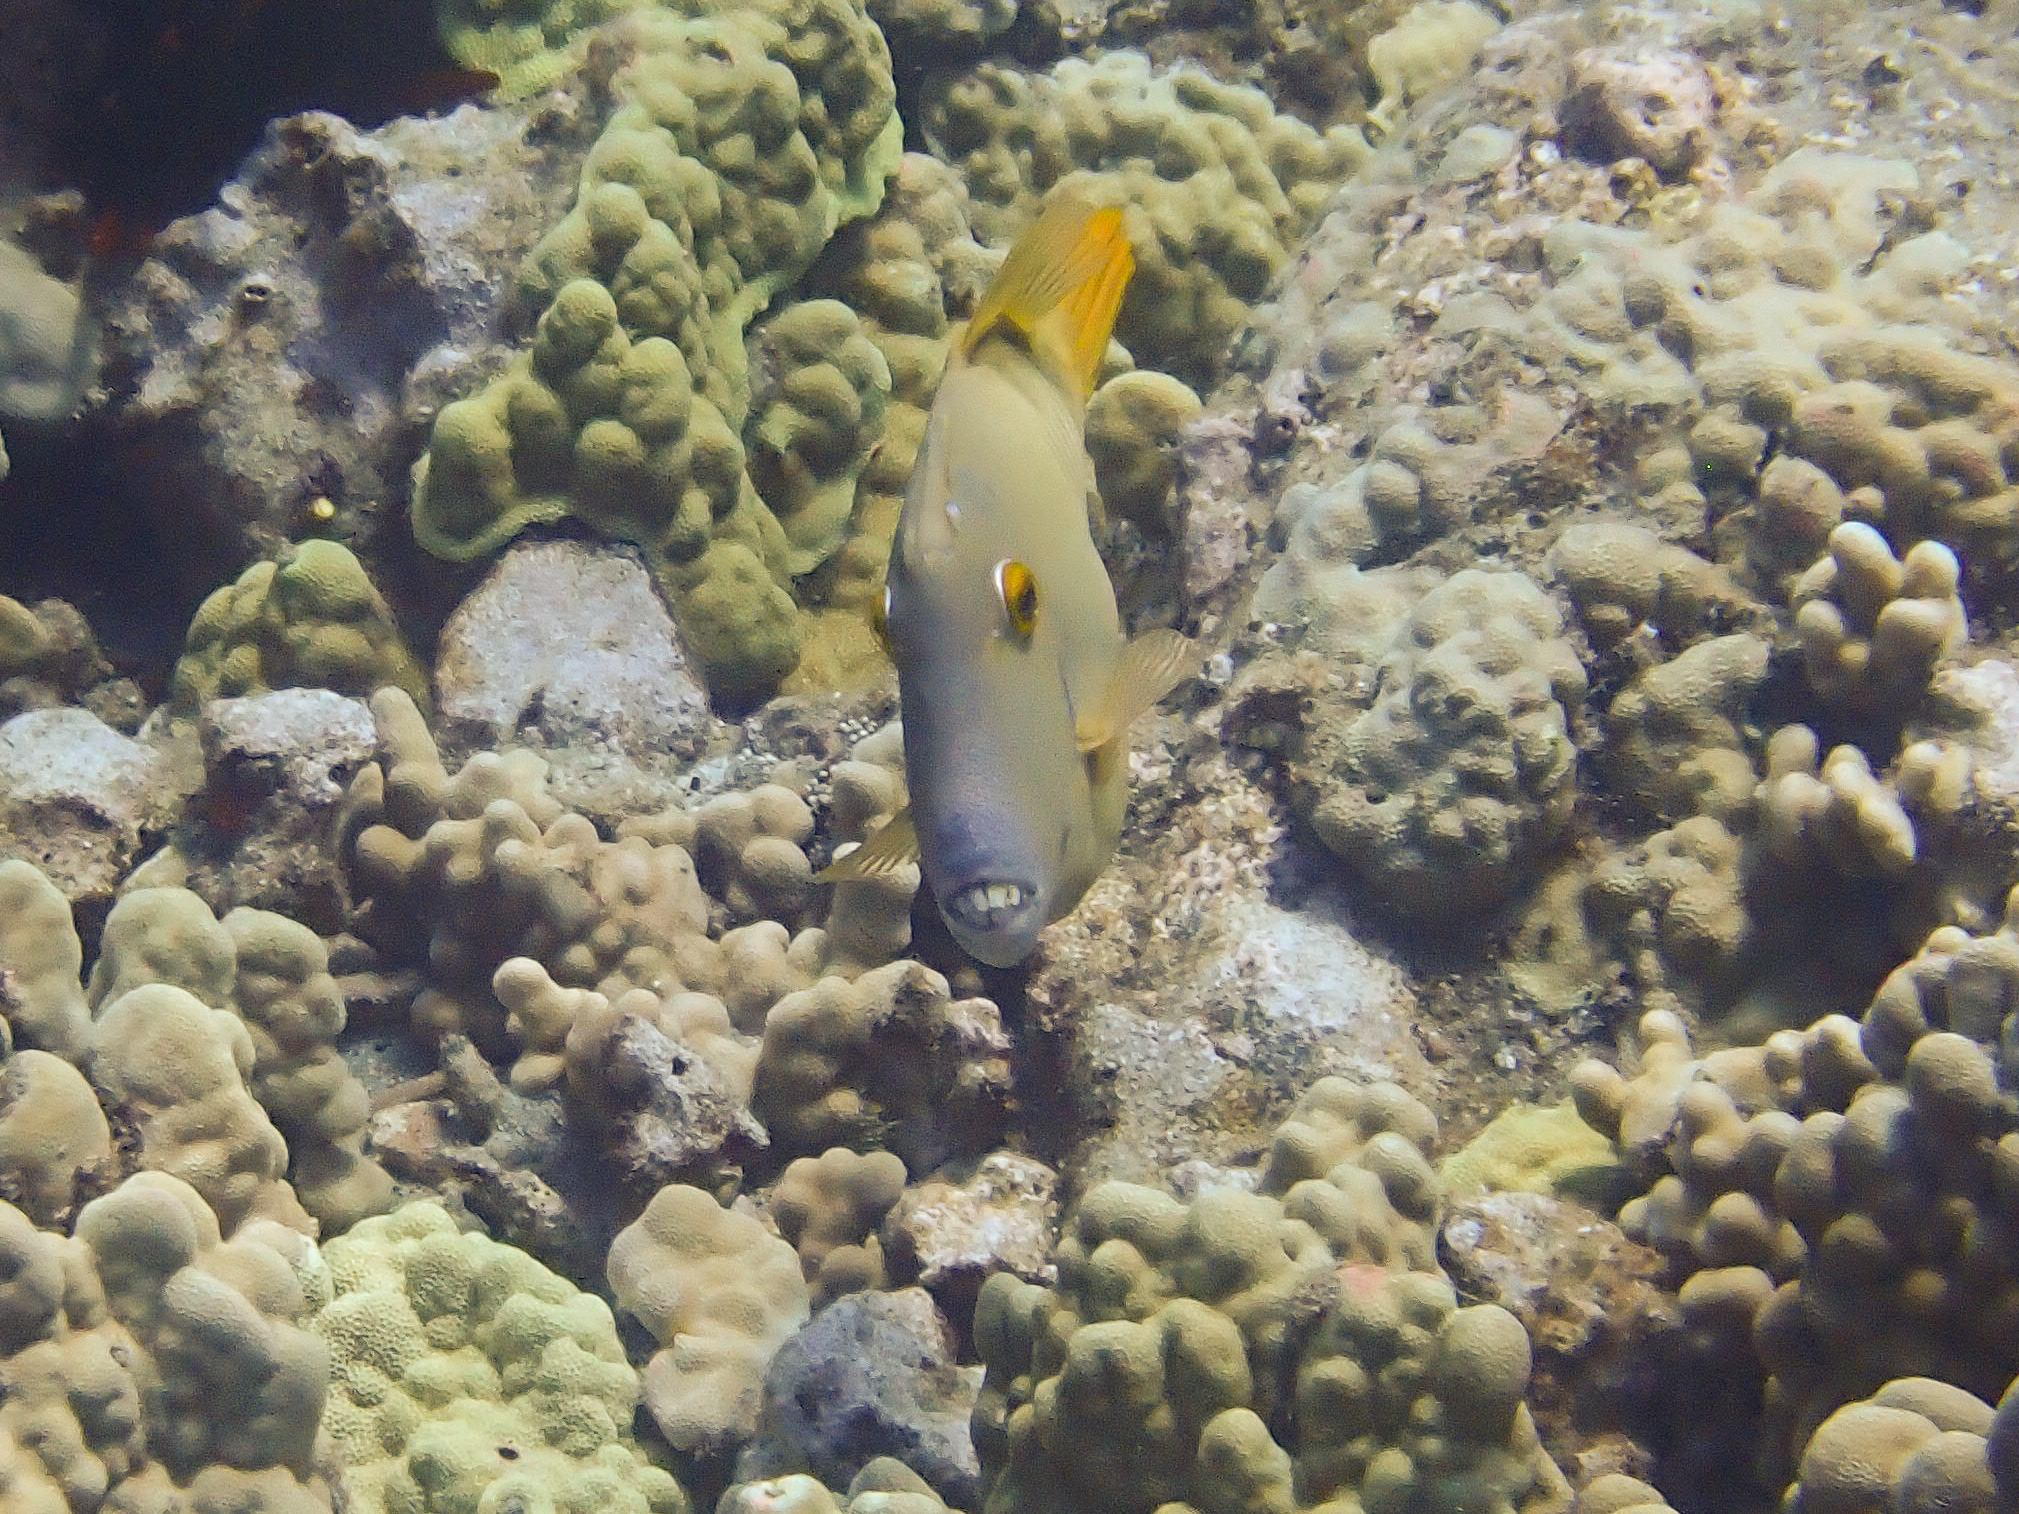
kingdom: Animalia
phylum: Chordata
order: Tetraodontiformes
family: Monacanthidae
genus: Cantherhines
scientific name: Cantherhines dumerilii
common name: Barred filefish
